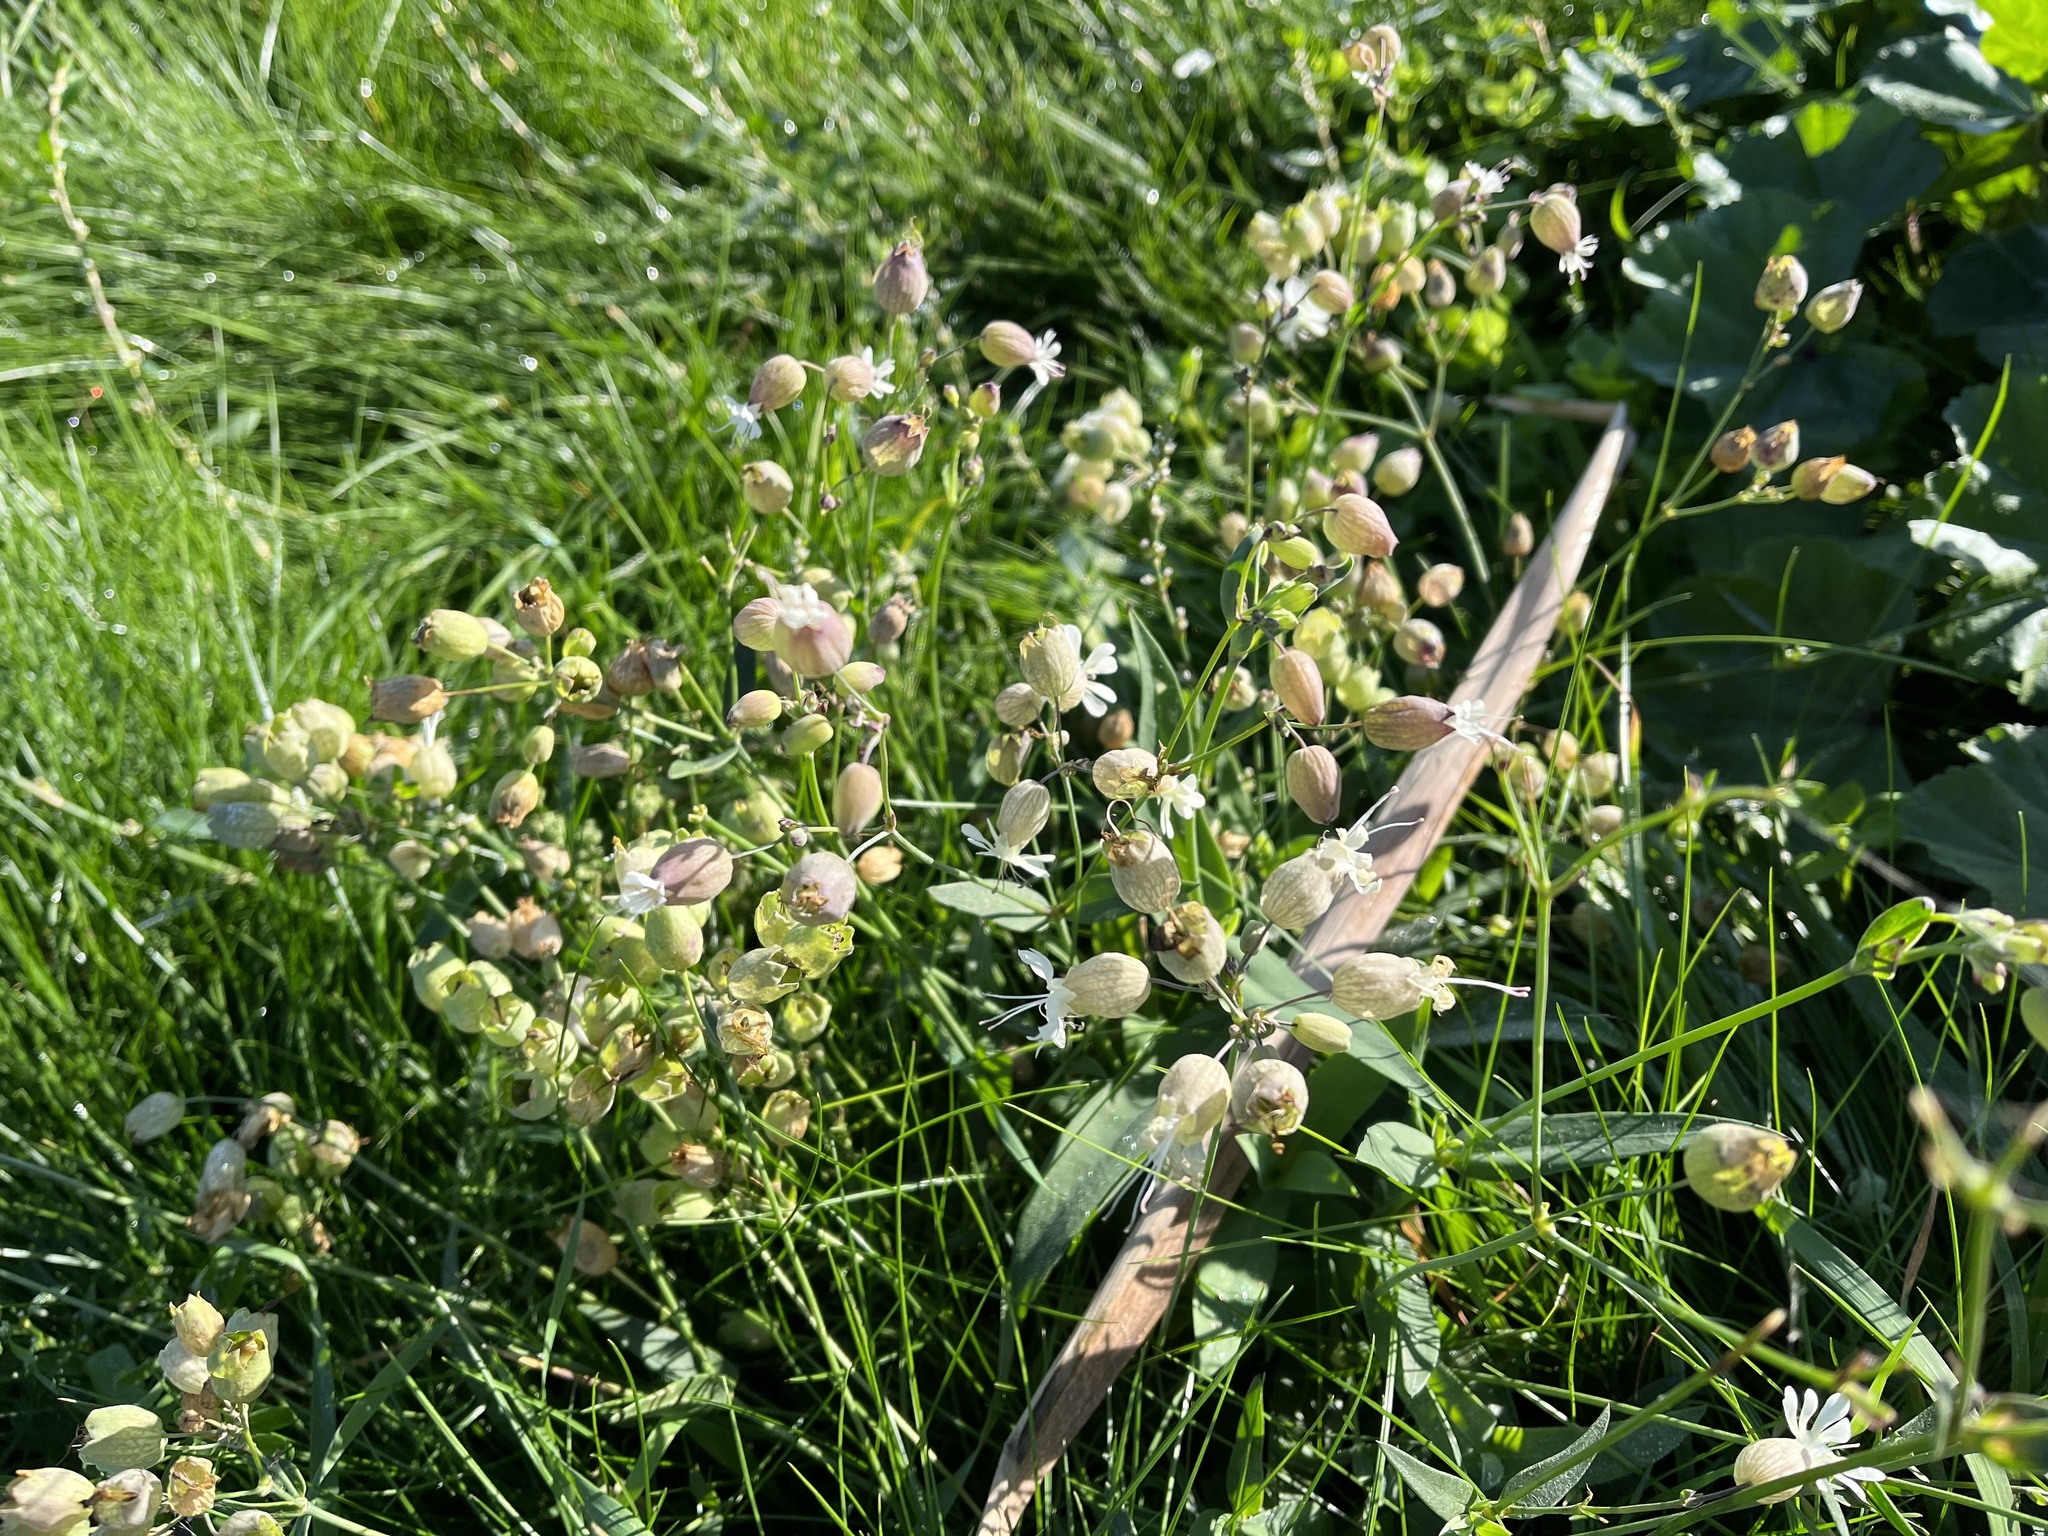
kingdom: Plantae
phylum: Tracheophyta
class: Magnoliopsida
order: Caryophyllales
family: Caryophyllaceae
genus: Silene
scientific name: Silene vulgaris
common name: Bladder campion
